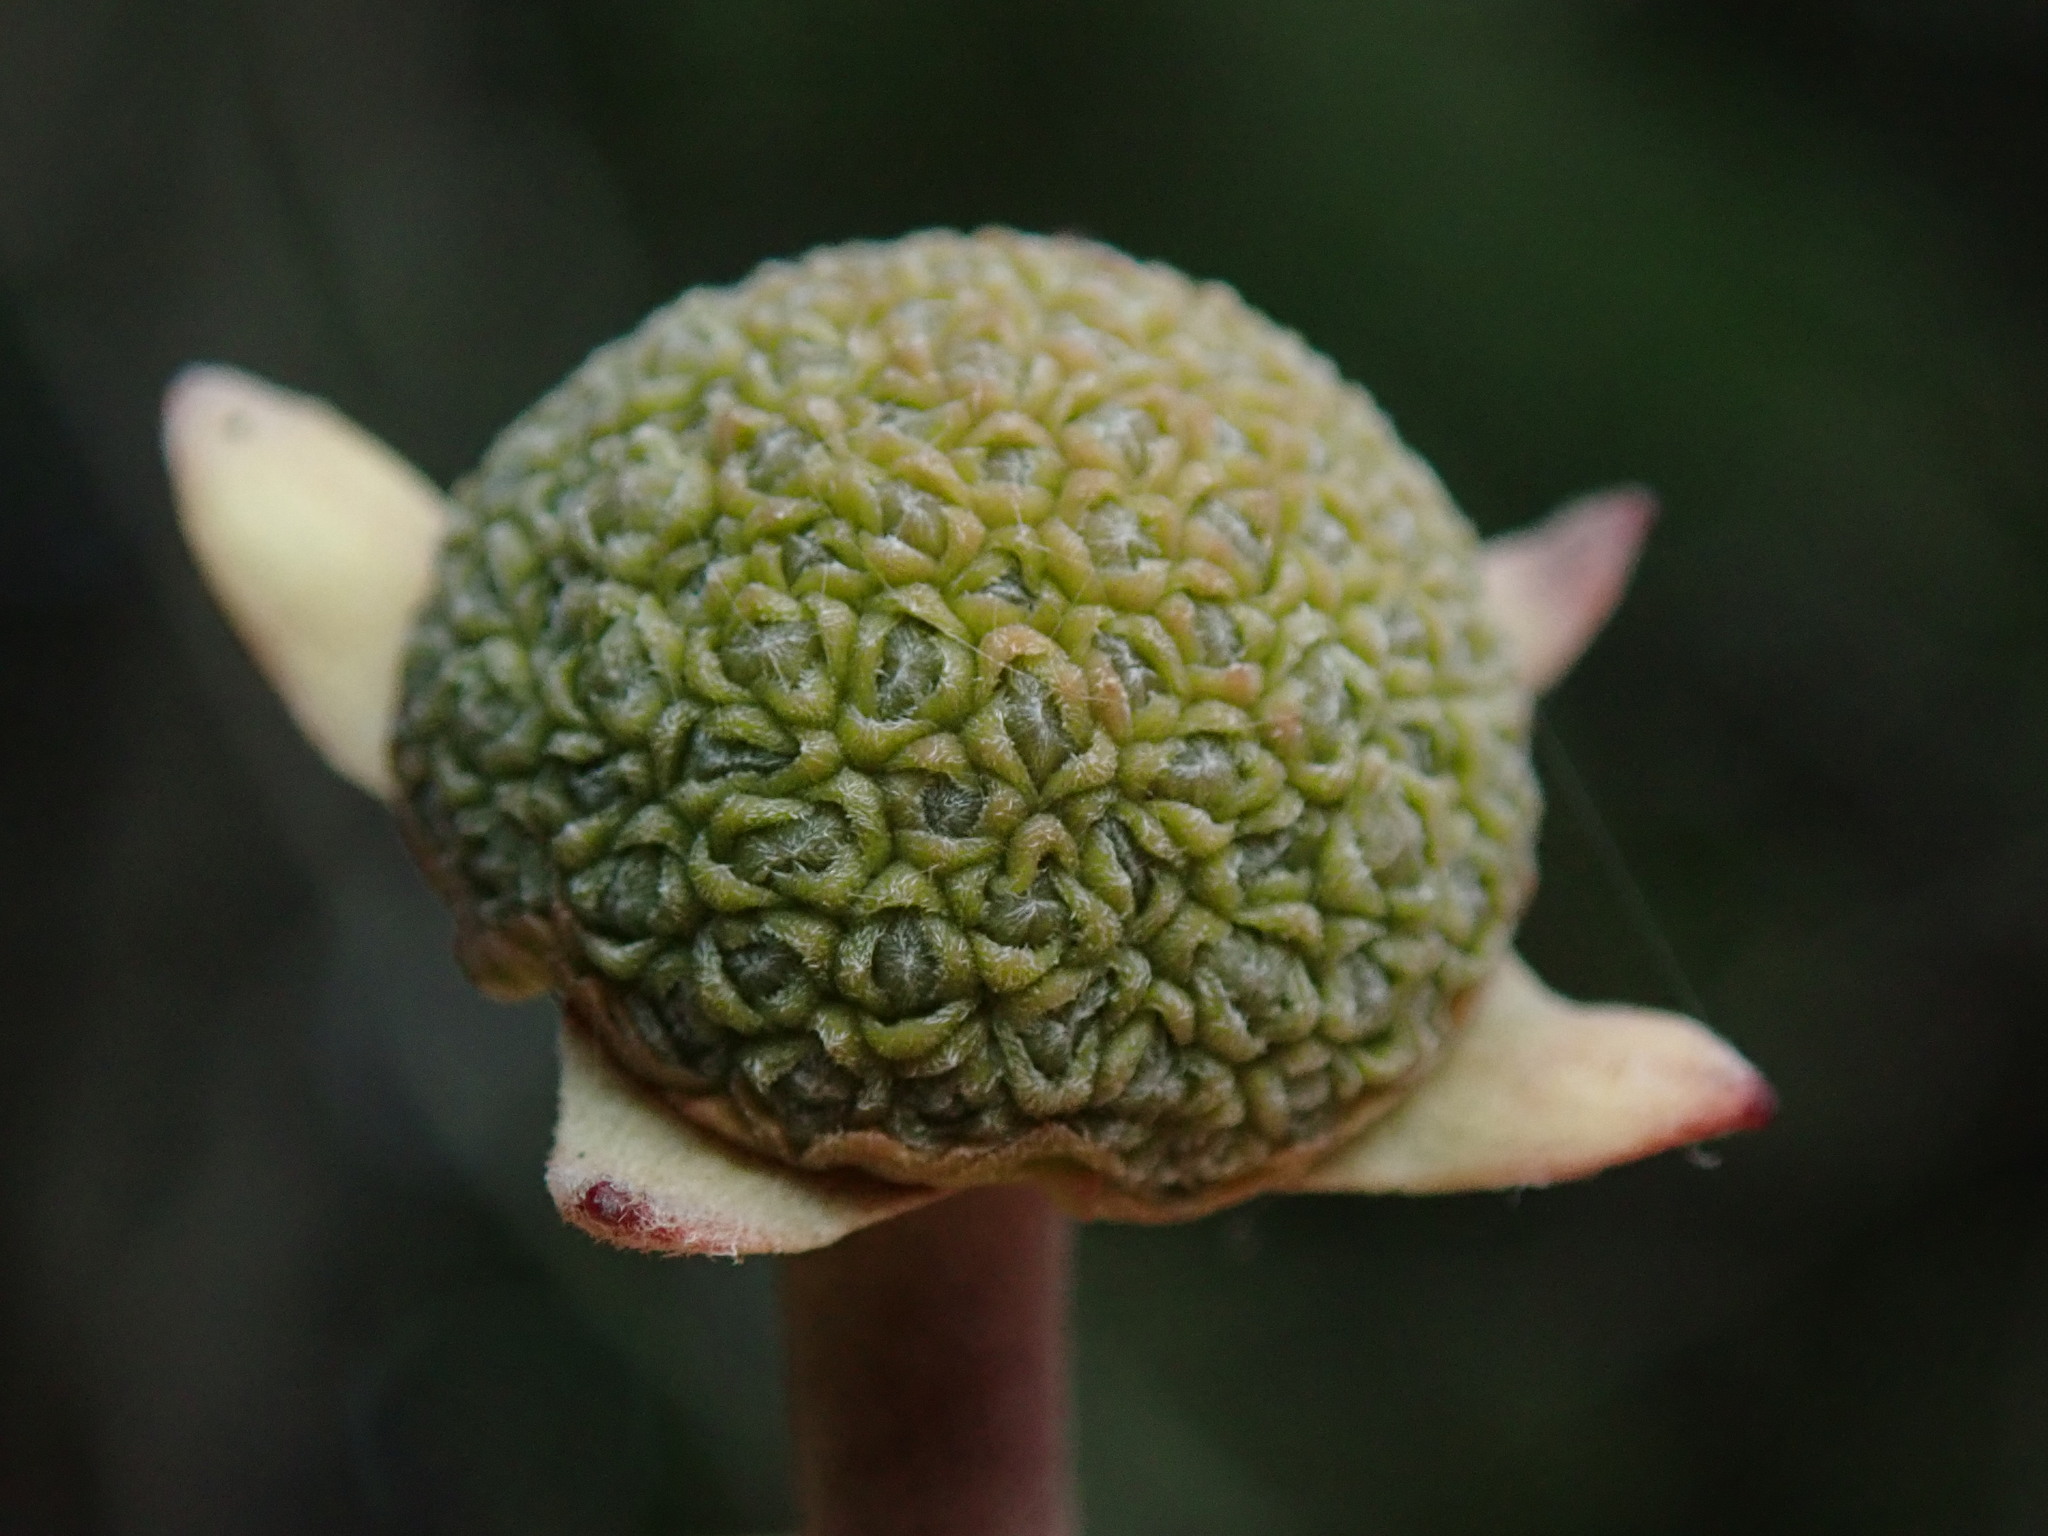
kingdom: Plantae
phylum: Tracheophyta
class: Magnoliopsida
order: Cornales
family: Cornaceae
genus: Cornus
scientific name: Cornus nuttallii
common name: Pacific dogwood
